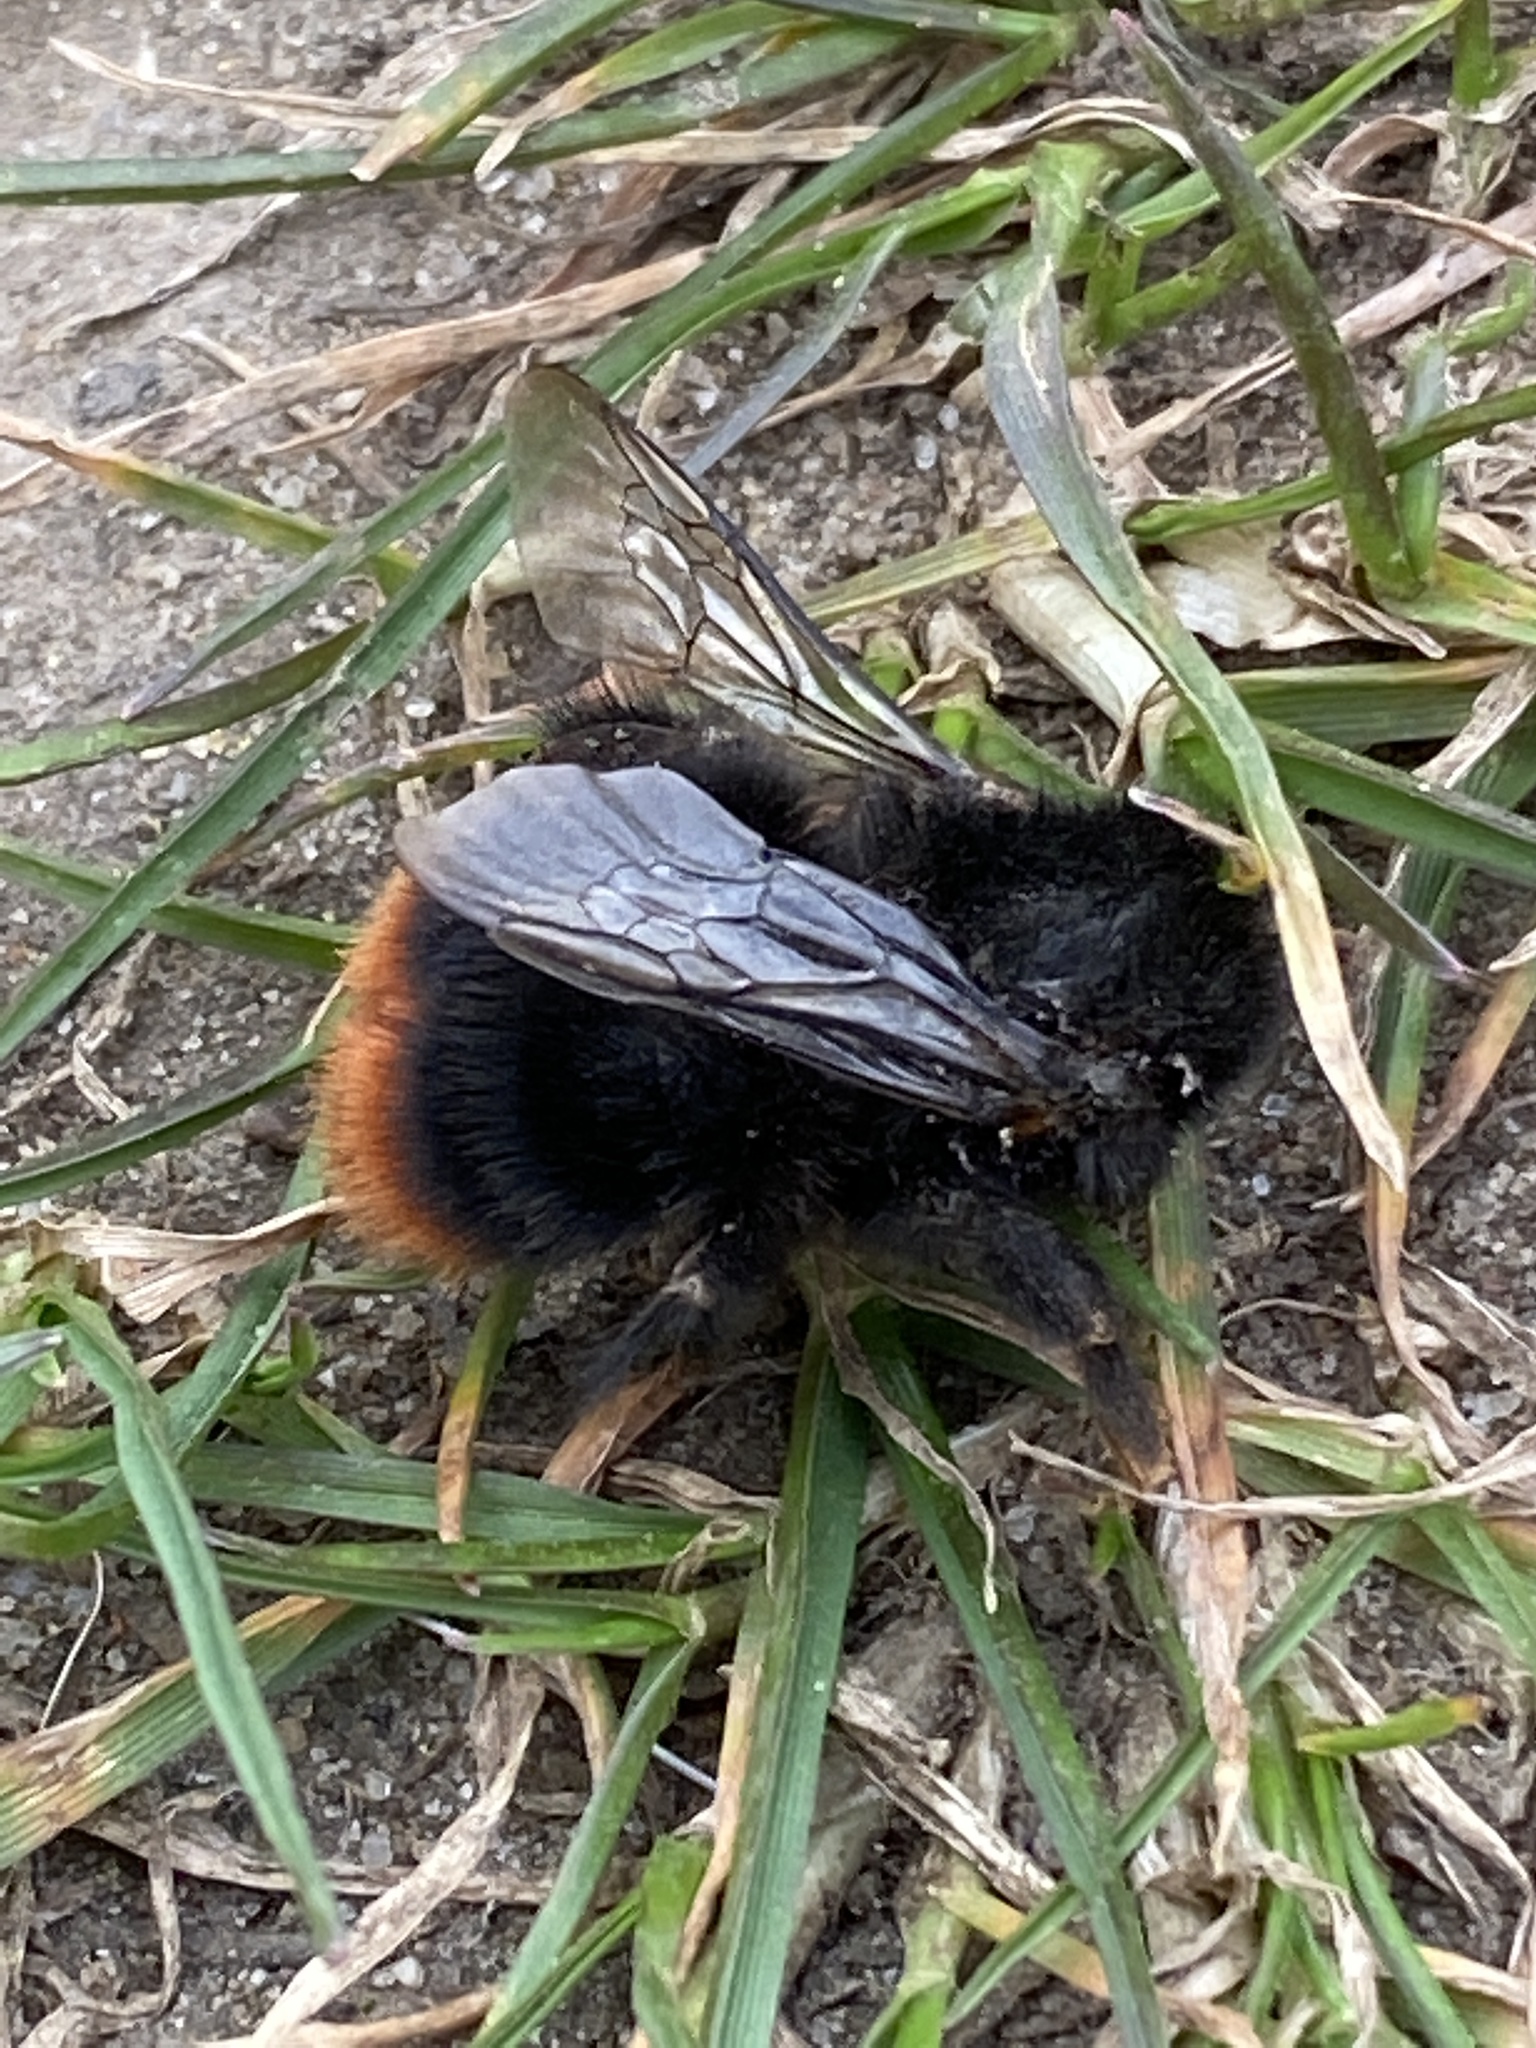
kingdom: Animalia
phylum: Arthropoda
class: Insecta
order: Hymenoptera
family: Apidae
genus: Bombus
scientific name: Bombus lapidarius
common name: Large red-tailed humble-bee
